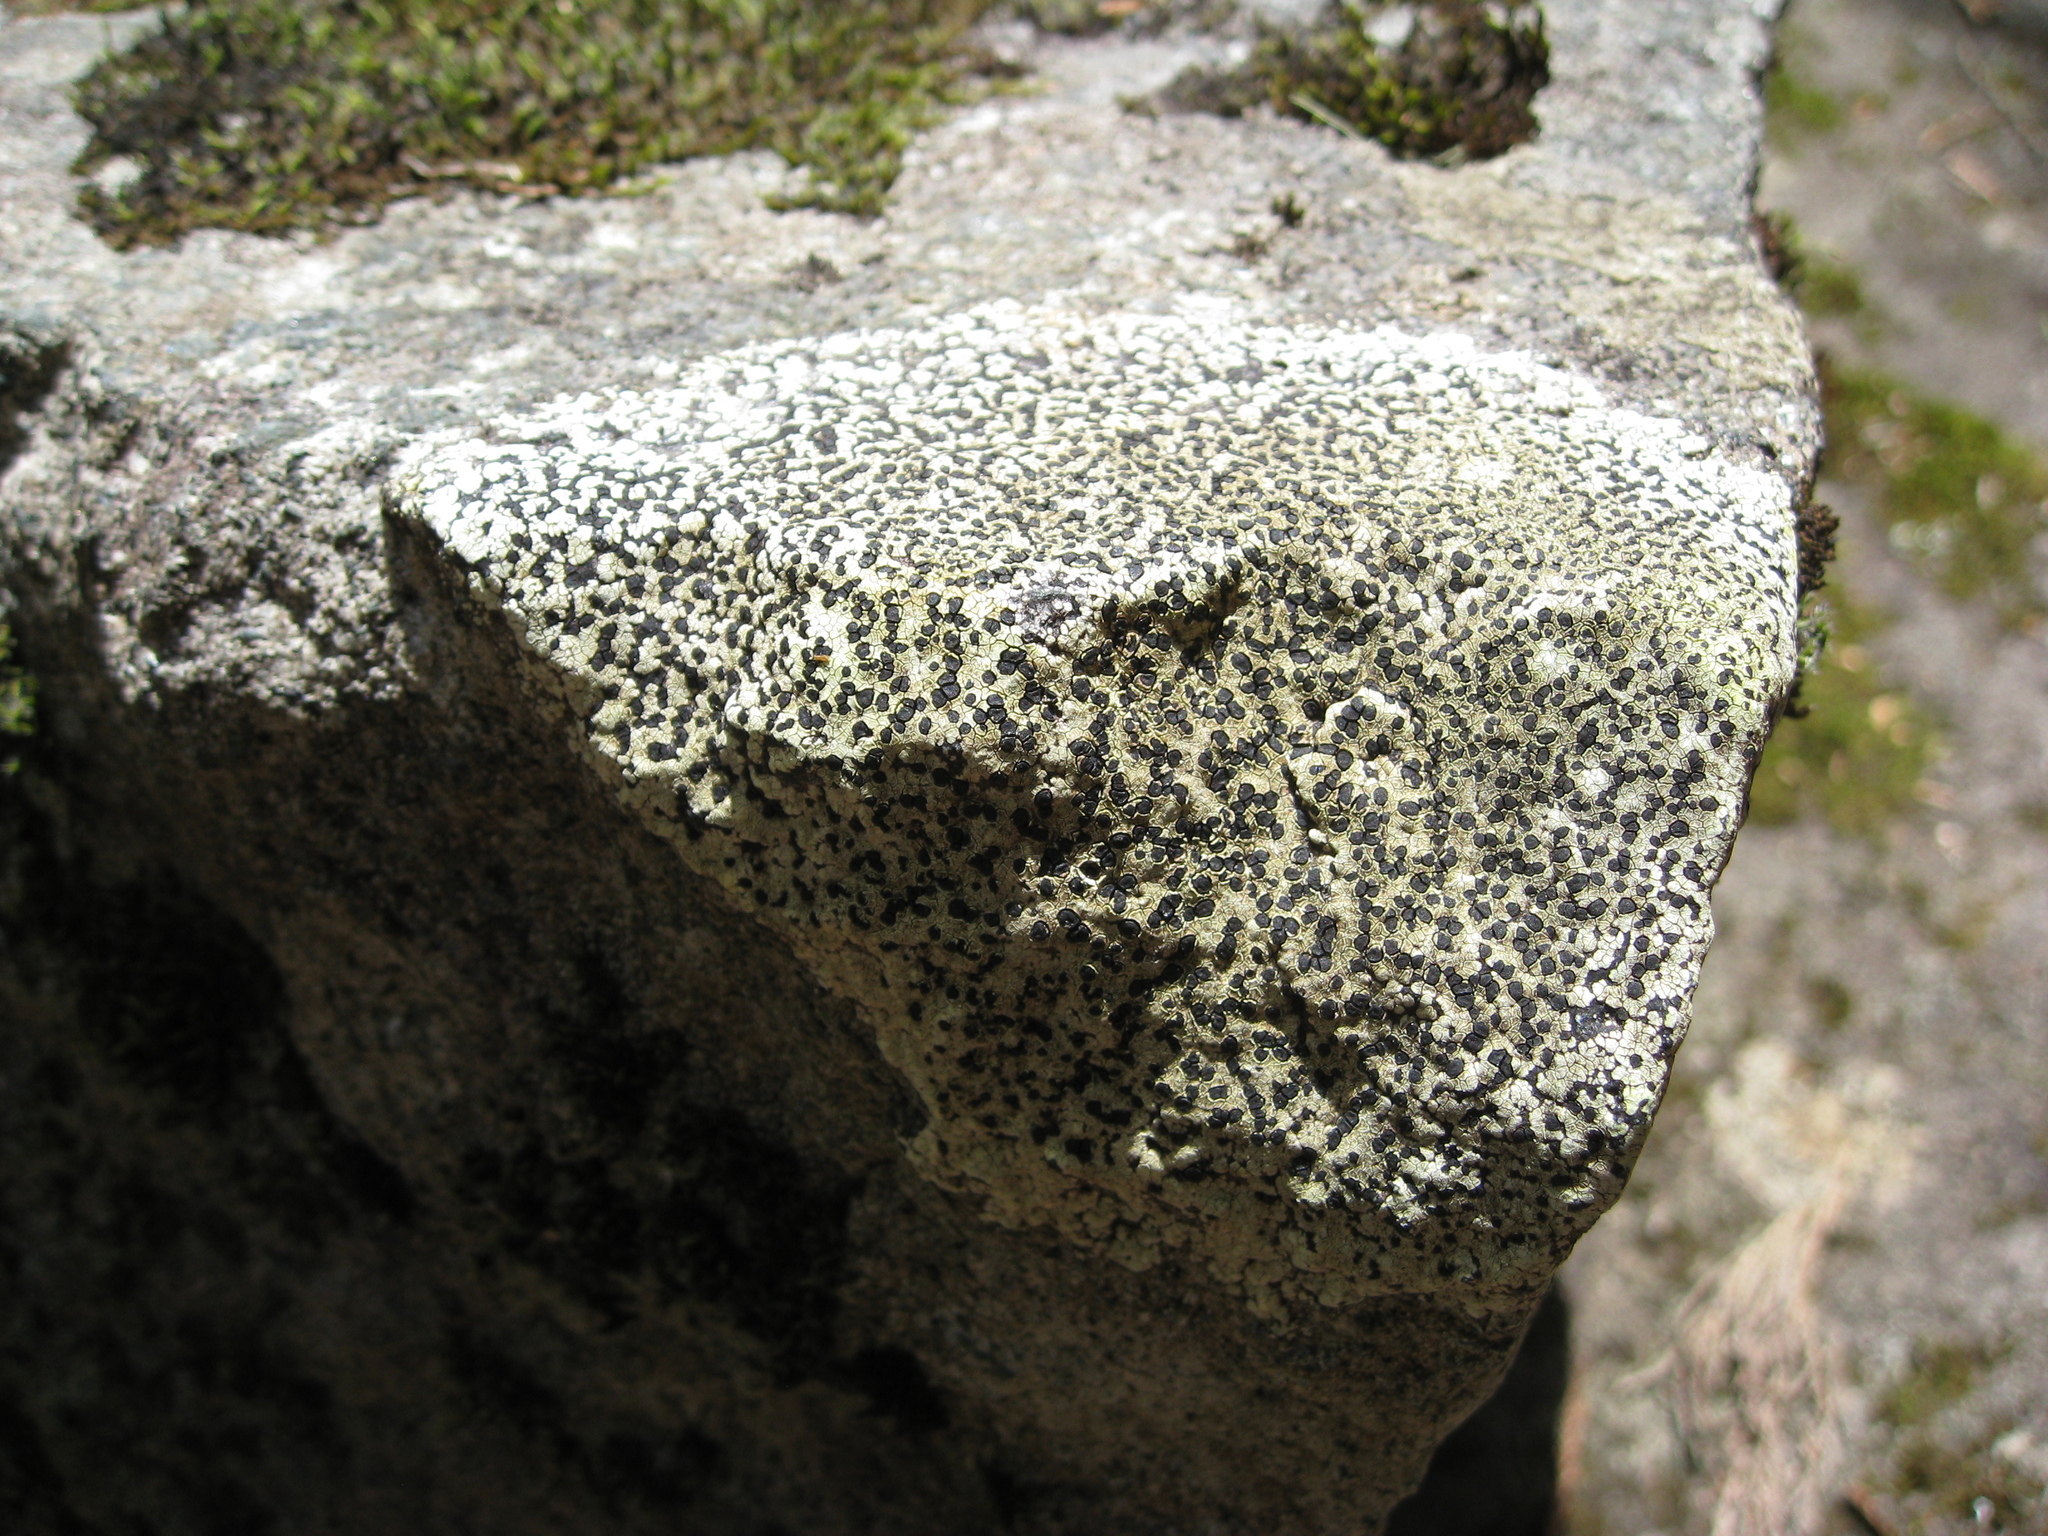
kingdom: Fungi
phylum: Ascomycota
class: Lecanoromycetes
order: Rhizocarpales
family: Rhizocarpaceae
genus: Rhizocarpon
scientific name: Rhizocarpon geographicum
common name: Yellow map lichen
